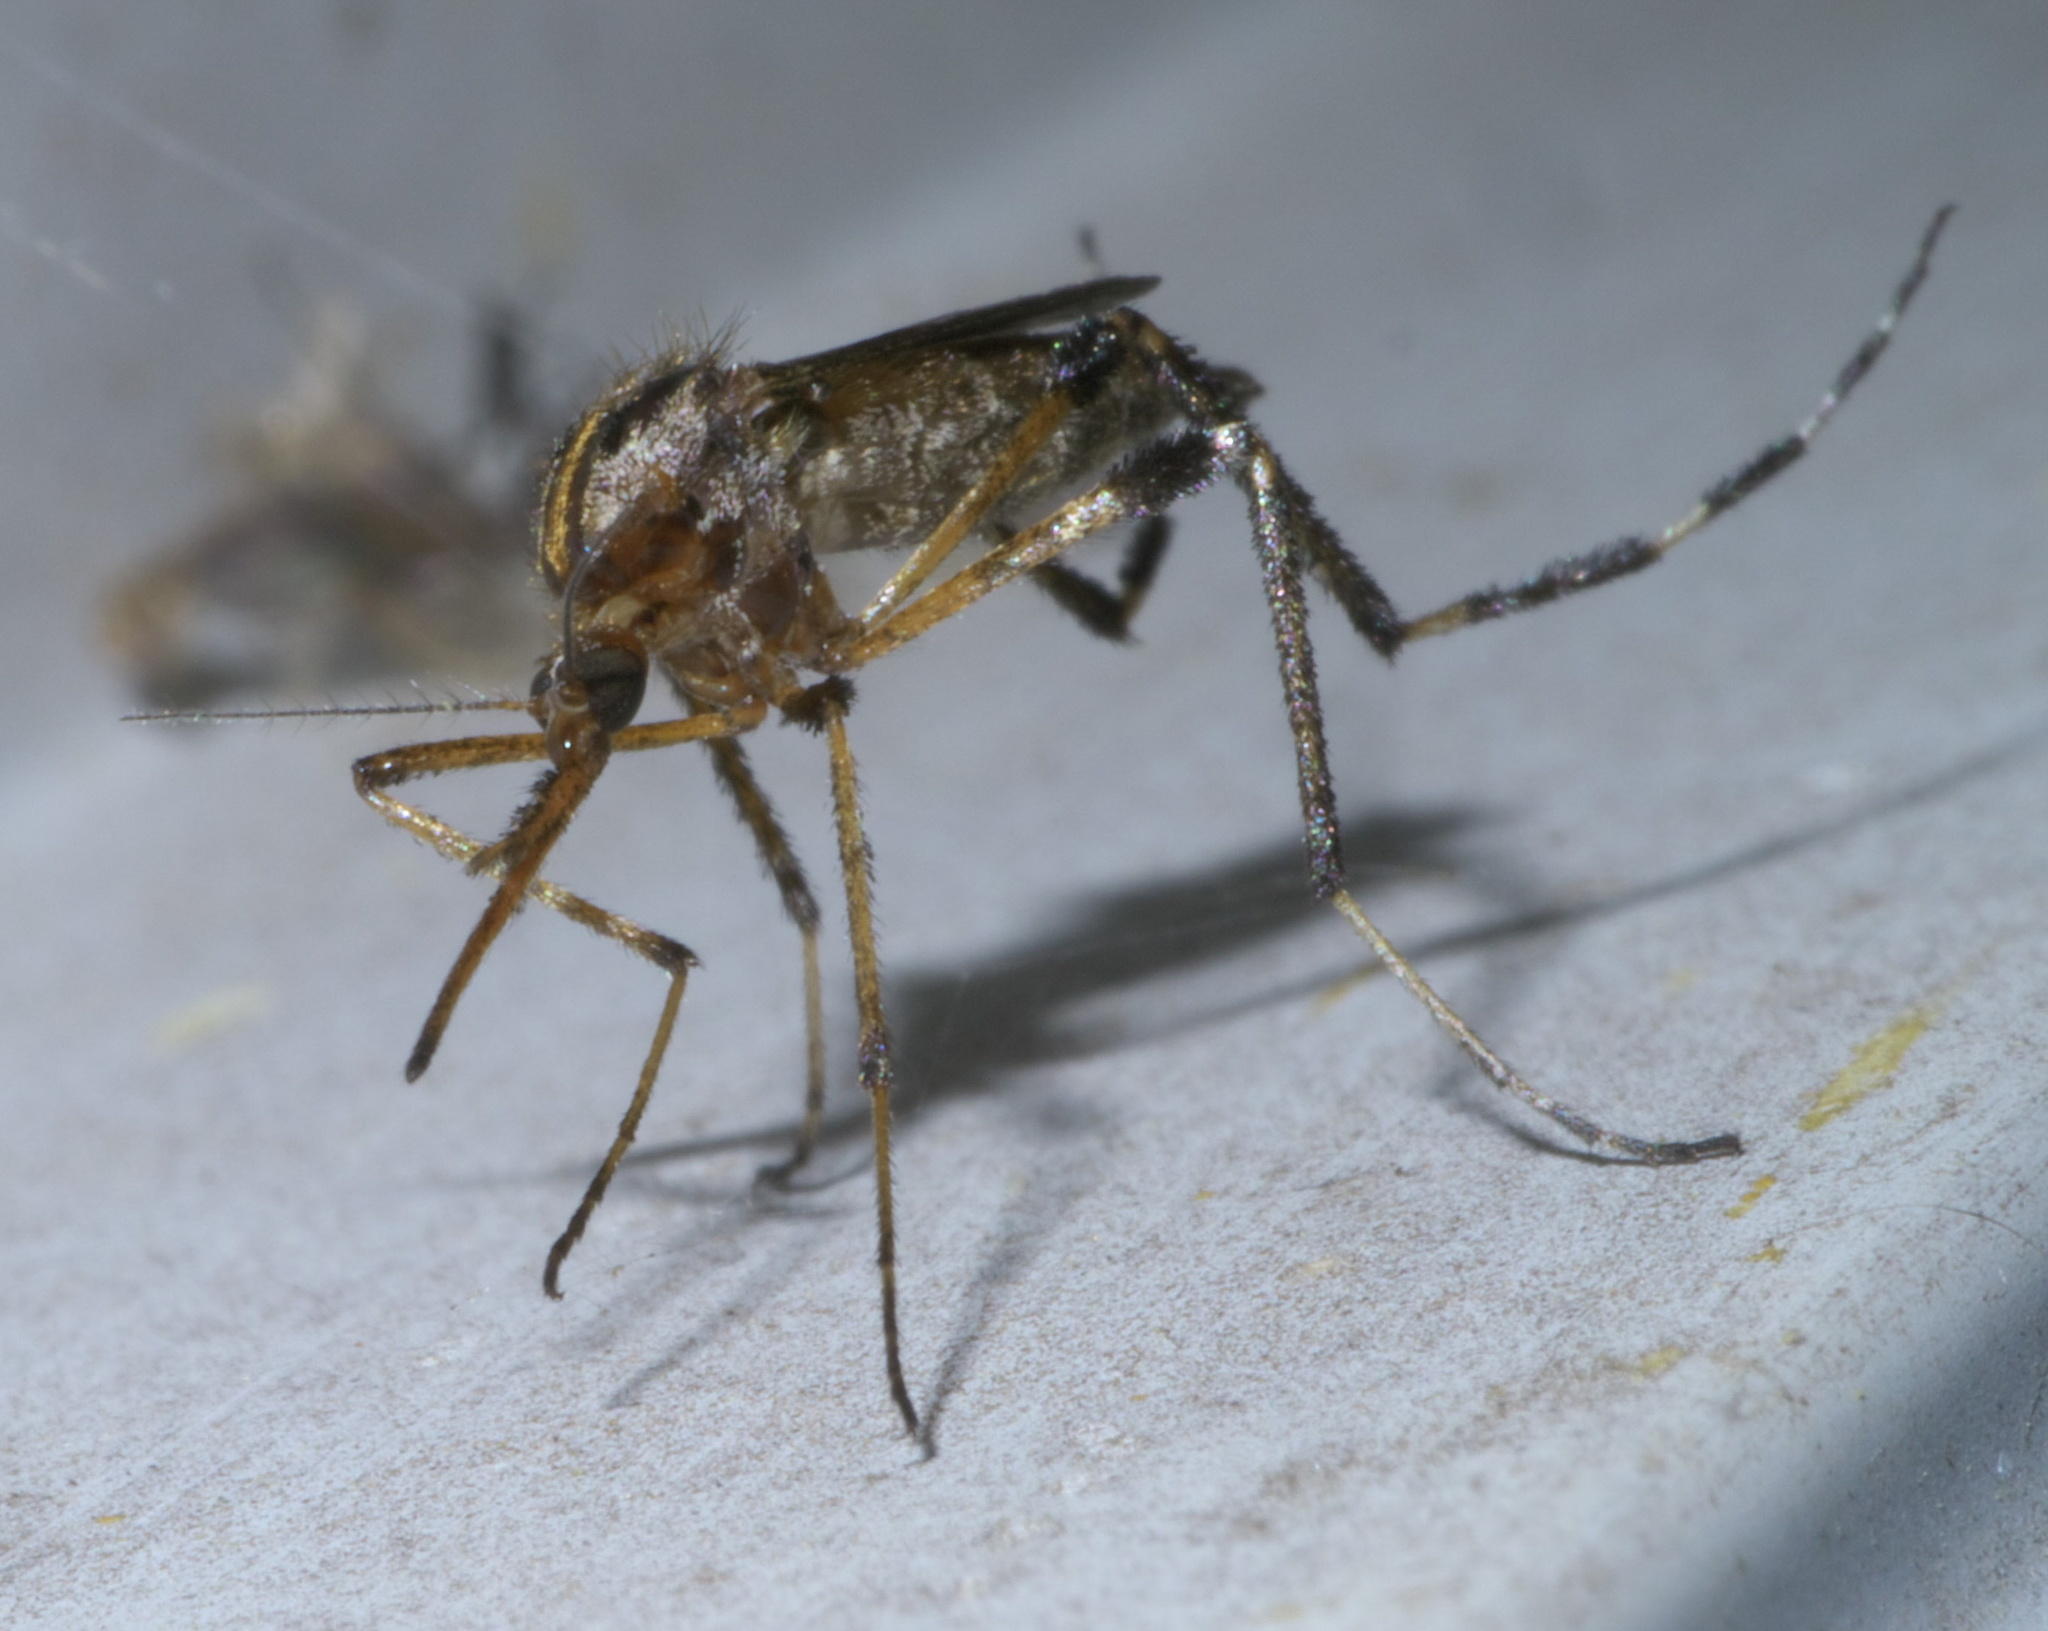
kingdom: Animalia
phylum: Arthropoda
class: Insecta
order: Diptera
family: Culicidae
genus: Psorophora
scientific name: Psorophora ciliata
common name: Gallinipper
